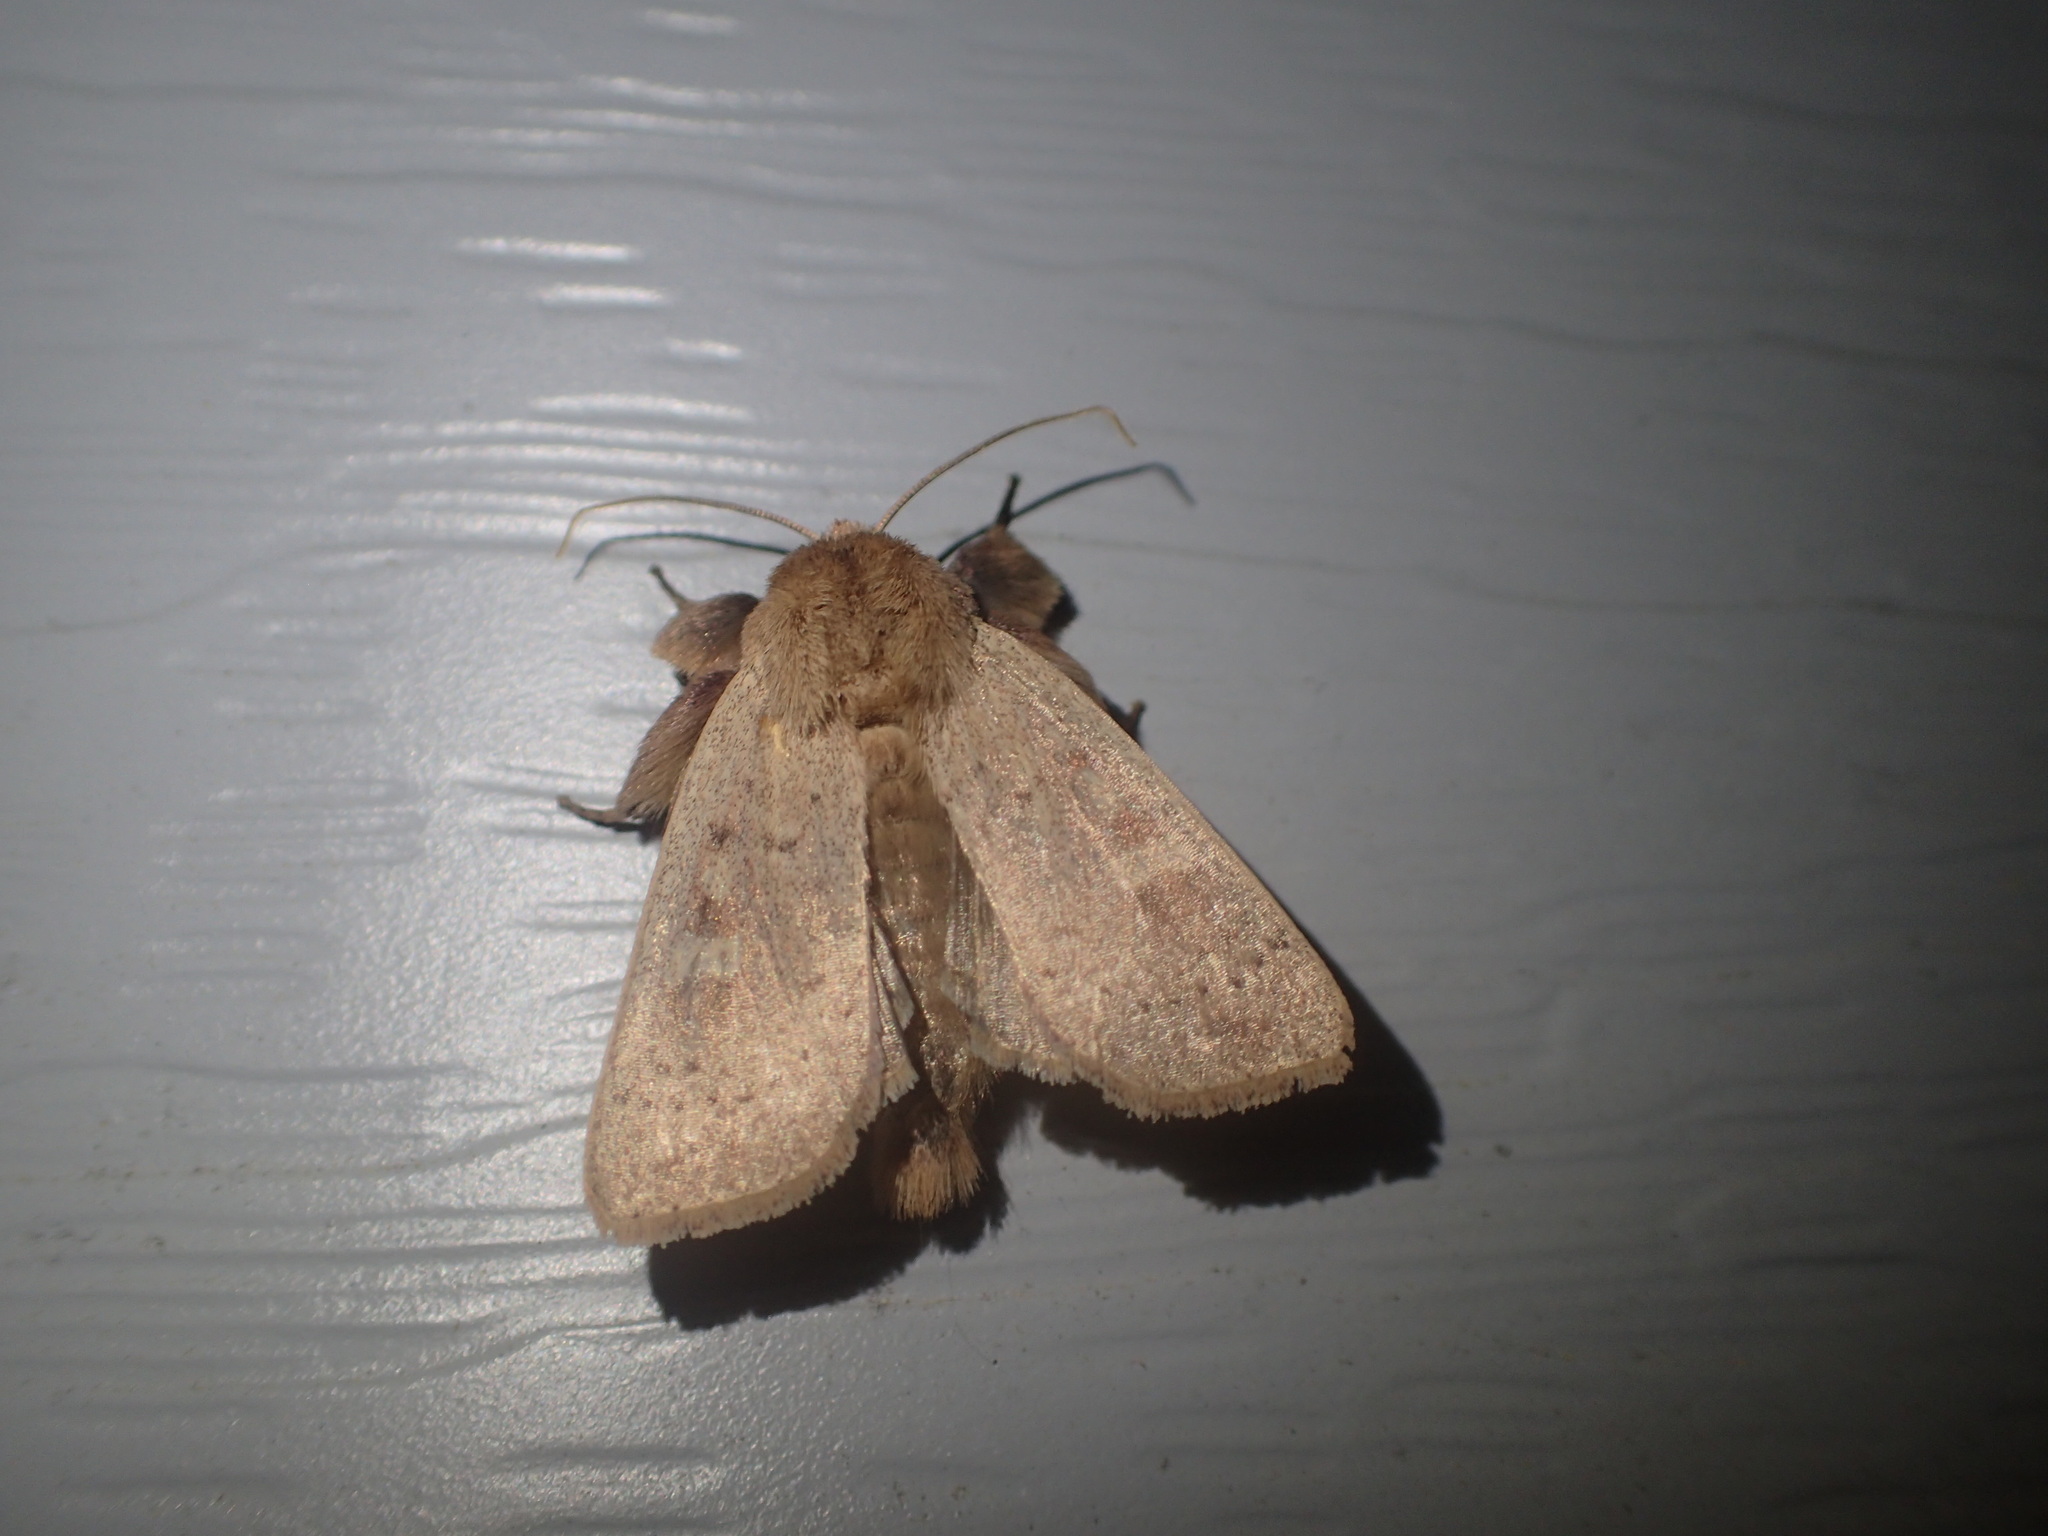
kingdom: Animalia
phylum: Arthropoda
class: Insecta
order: Lepidoptera
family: Noctuidae
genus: Leucania
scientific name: Leucania pseudargyria
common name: False wainscot
